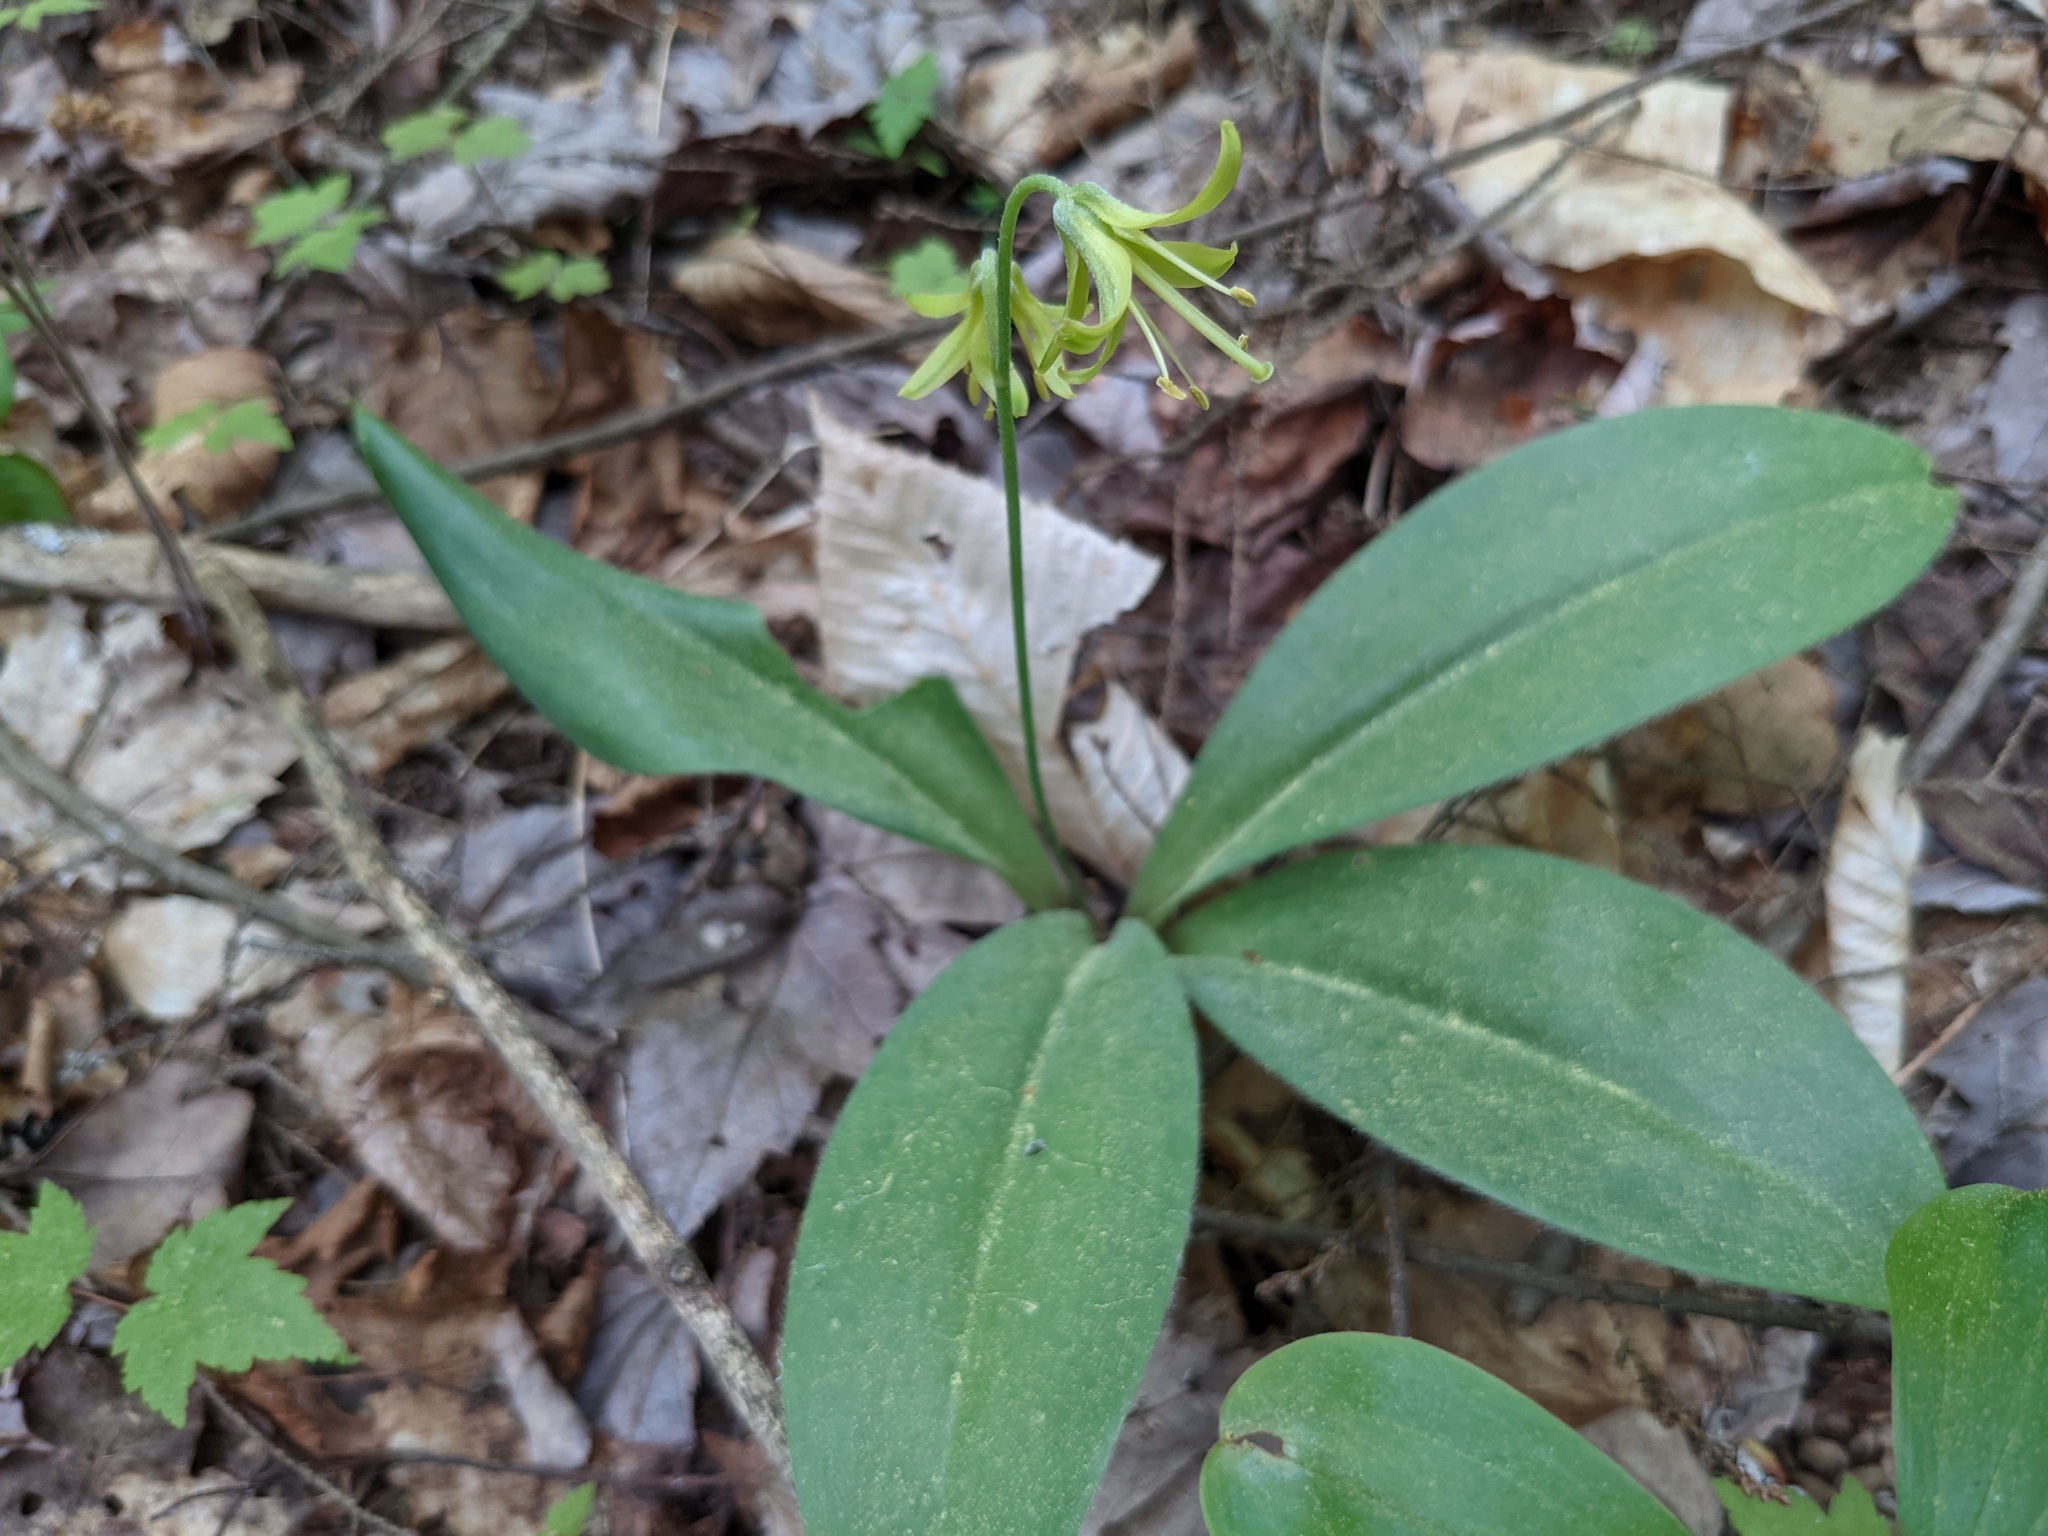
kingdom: Plantae
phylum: Tracheophyta
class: Liliopsida
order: Liliales
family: Liliaceae
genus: Clintonia
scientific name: Clintonia borealis
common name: Yellow clintonia
